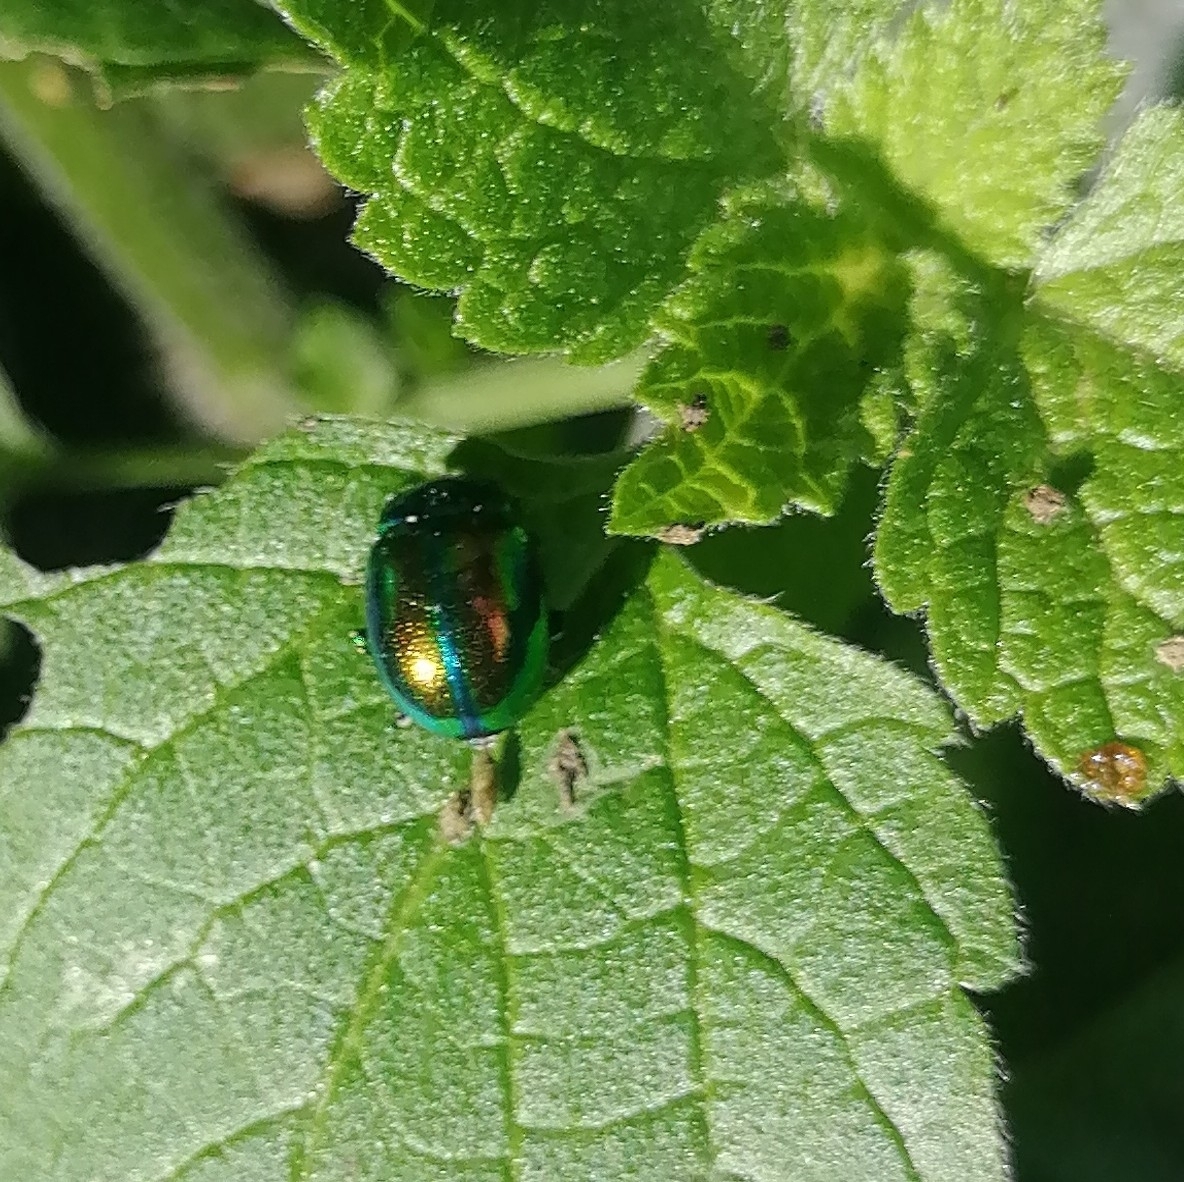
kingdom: Animalia
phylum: Arthropoda
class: Insecta
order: Coleoptera
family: Chrysomelidae
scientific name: Chrysomelidae
